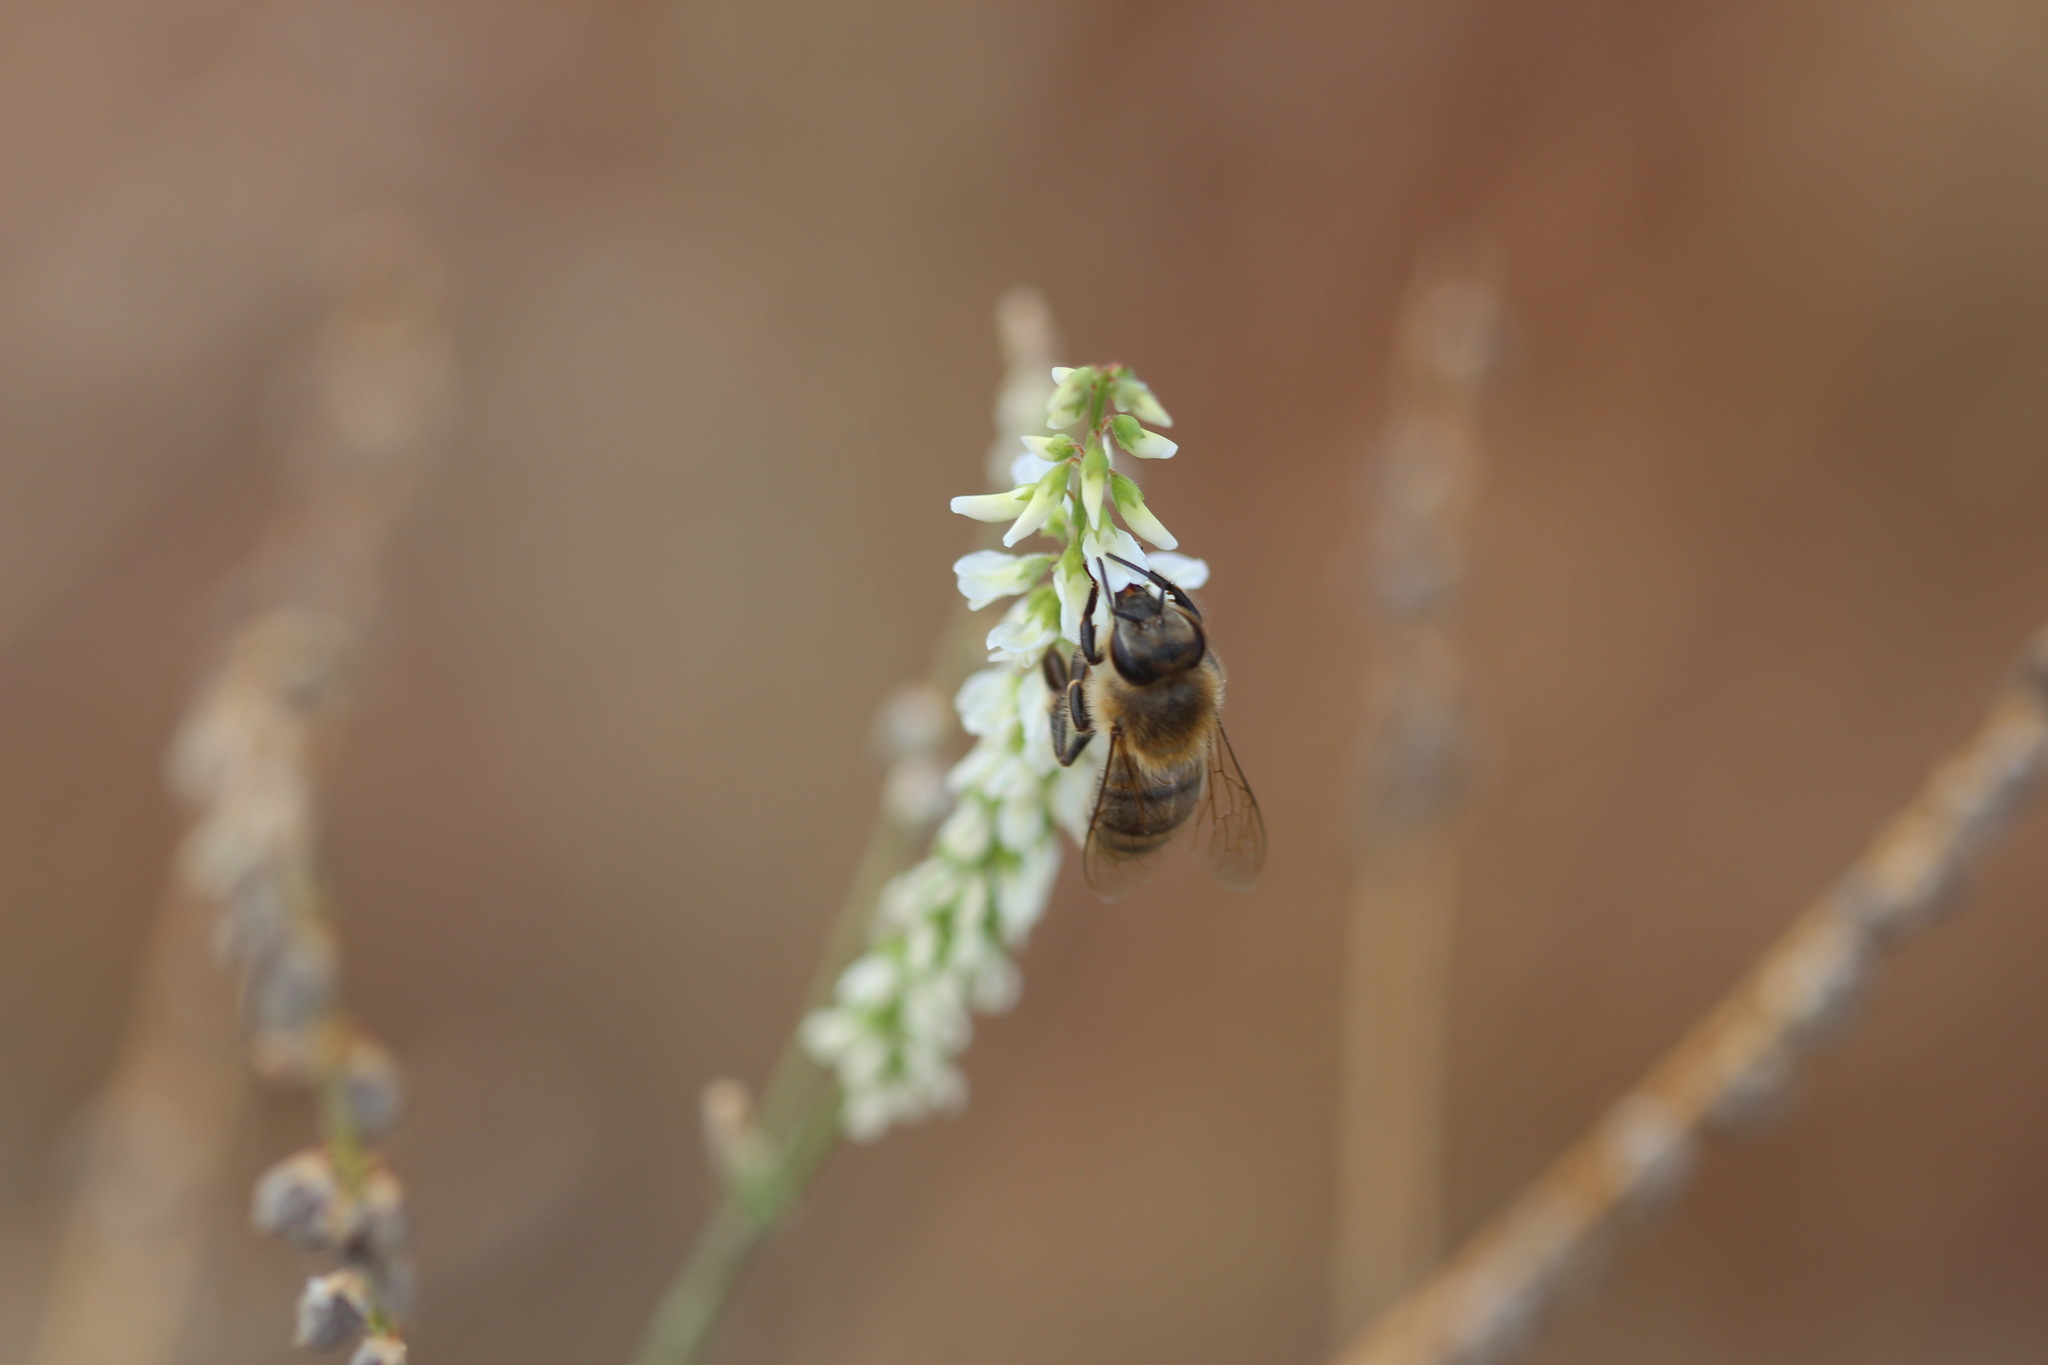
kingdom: Animalia
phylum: Arthropoda
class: Insecta
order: Hymenoptera
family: Apidae
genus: Apis
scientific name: Apis mellifera
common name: Honey bee
